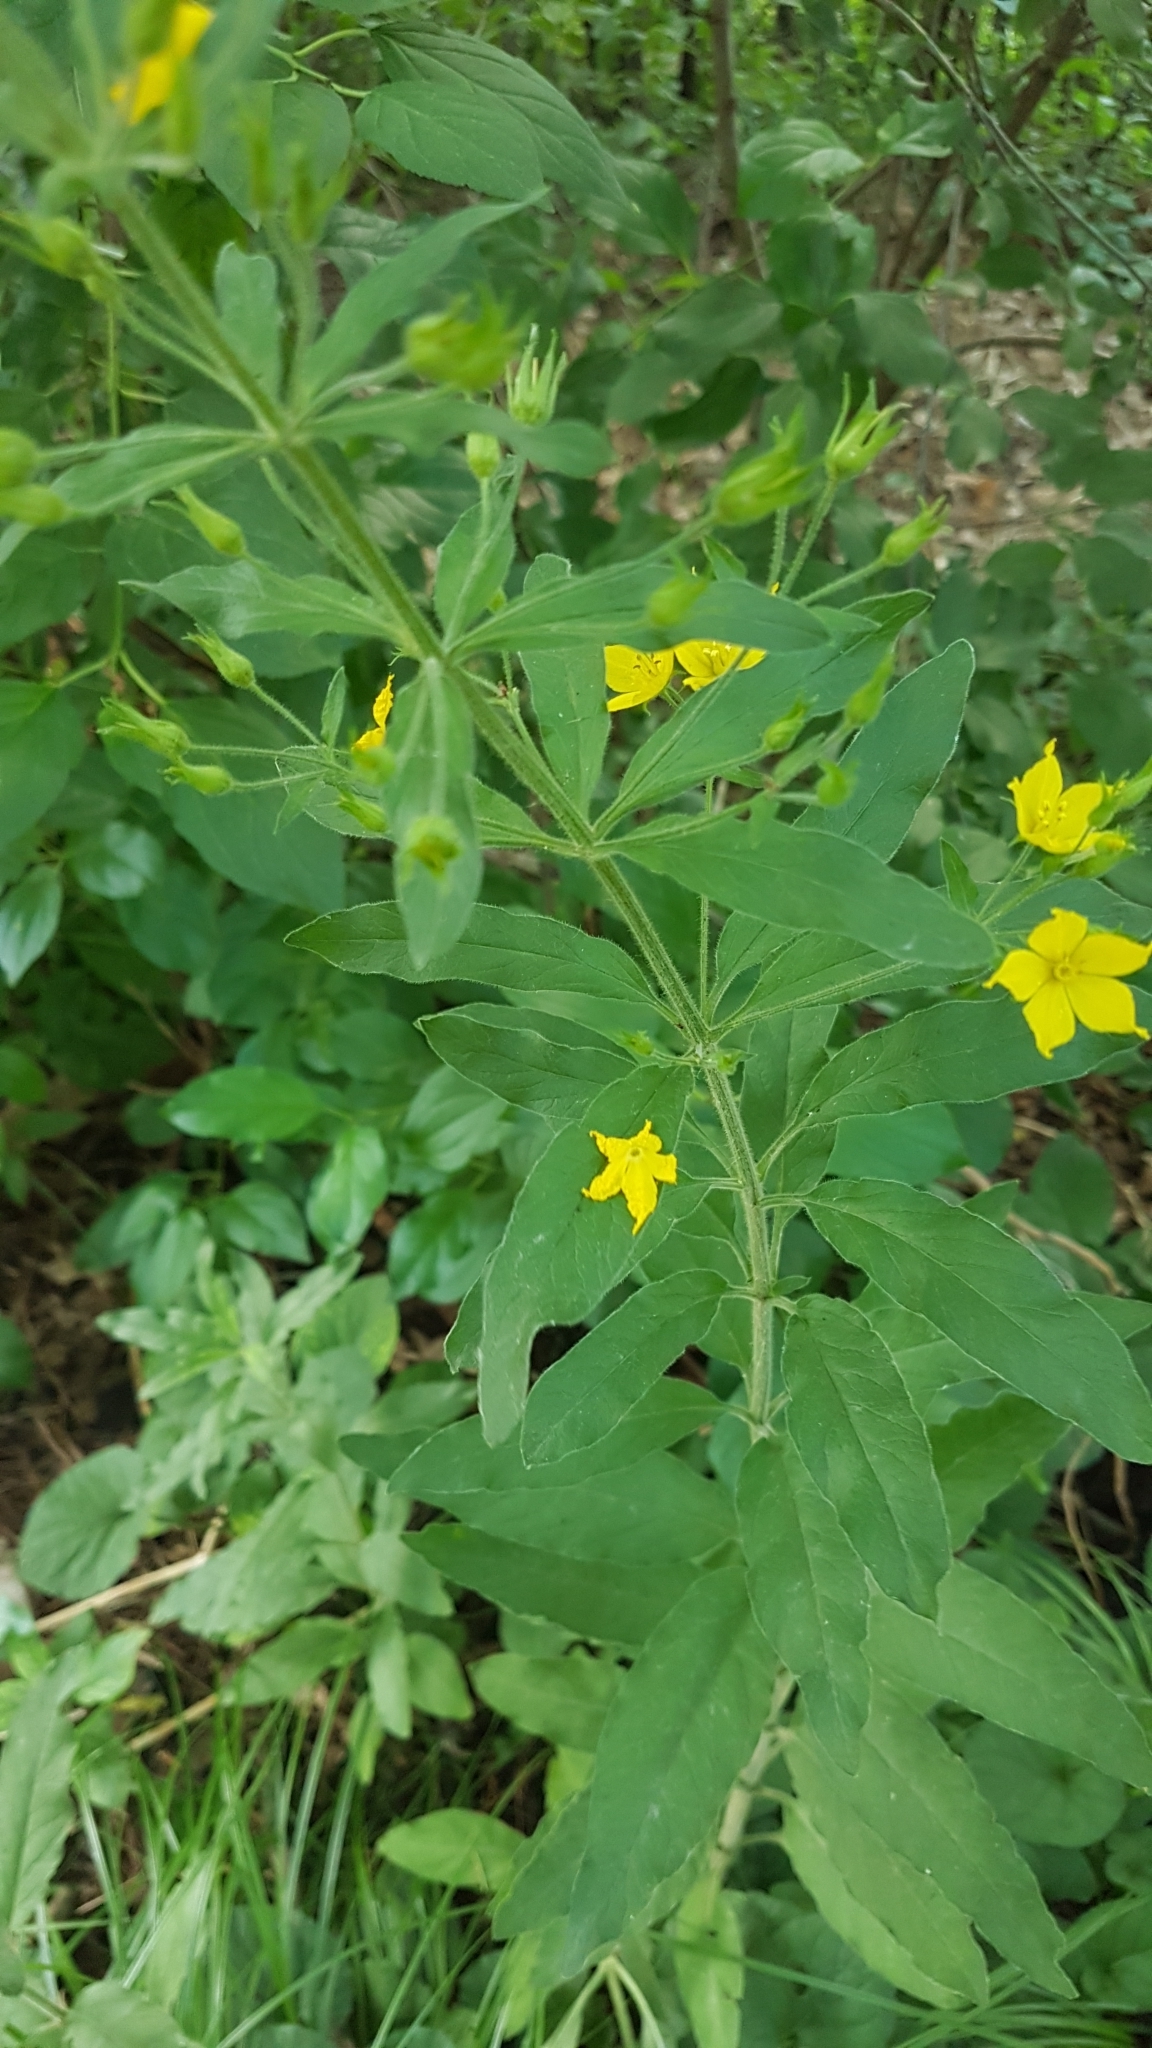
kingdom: Plantae
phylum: Tracheophyta
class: Magnoliopsida
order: Ericales
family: Primulaceae
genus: Lysimachia
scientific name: Lysimachia punctata
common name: Dotted loosestrife
